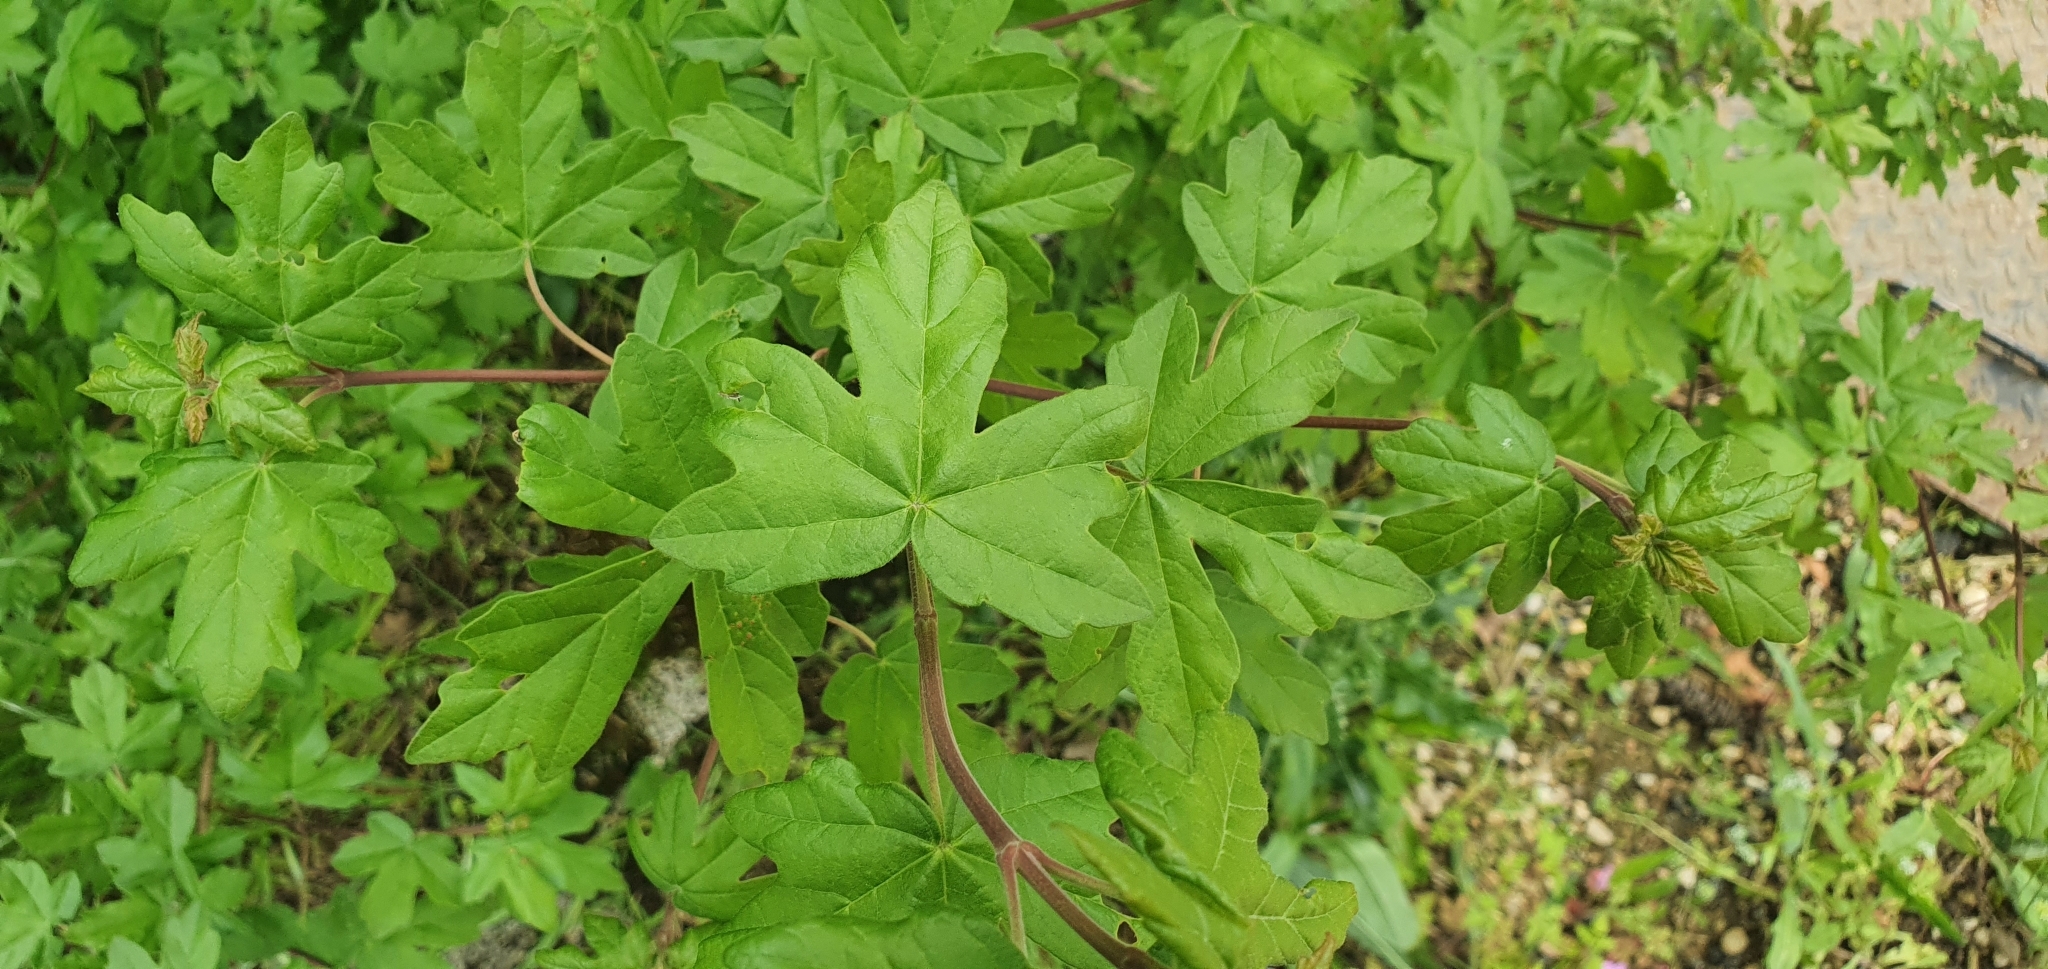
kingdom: Plantae
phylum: Tracheophyta
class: Magnoliopsida
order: Sapindales
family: Sapindaceae
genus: Acer
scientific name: Acer campestre
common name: Field maple
